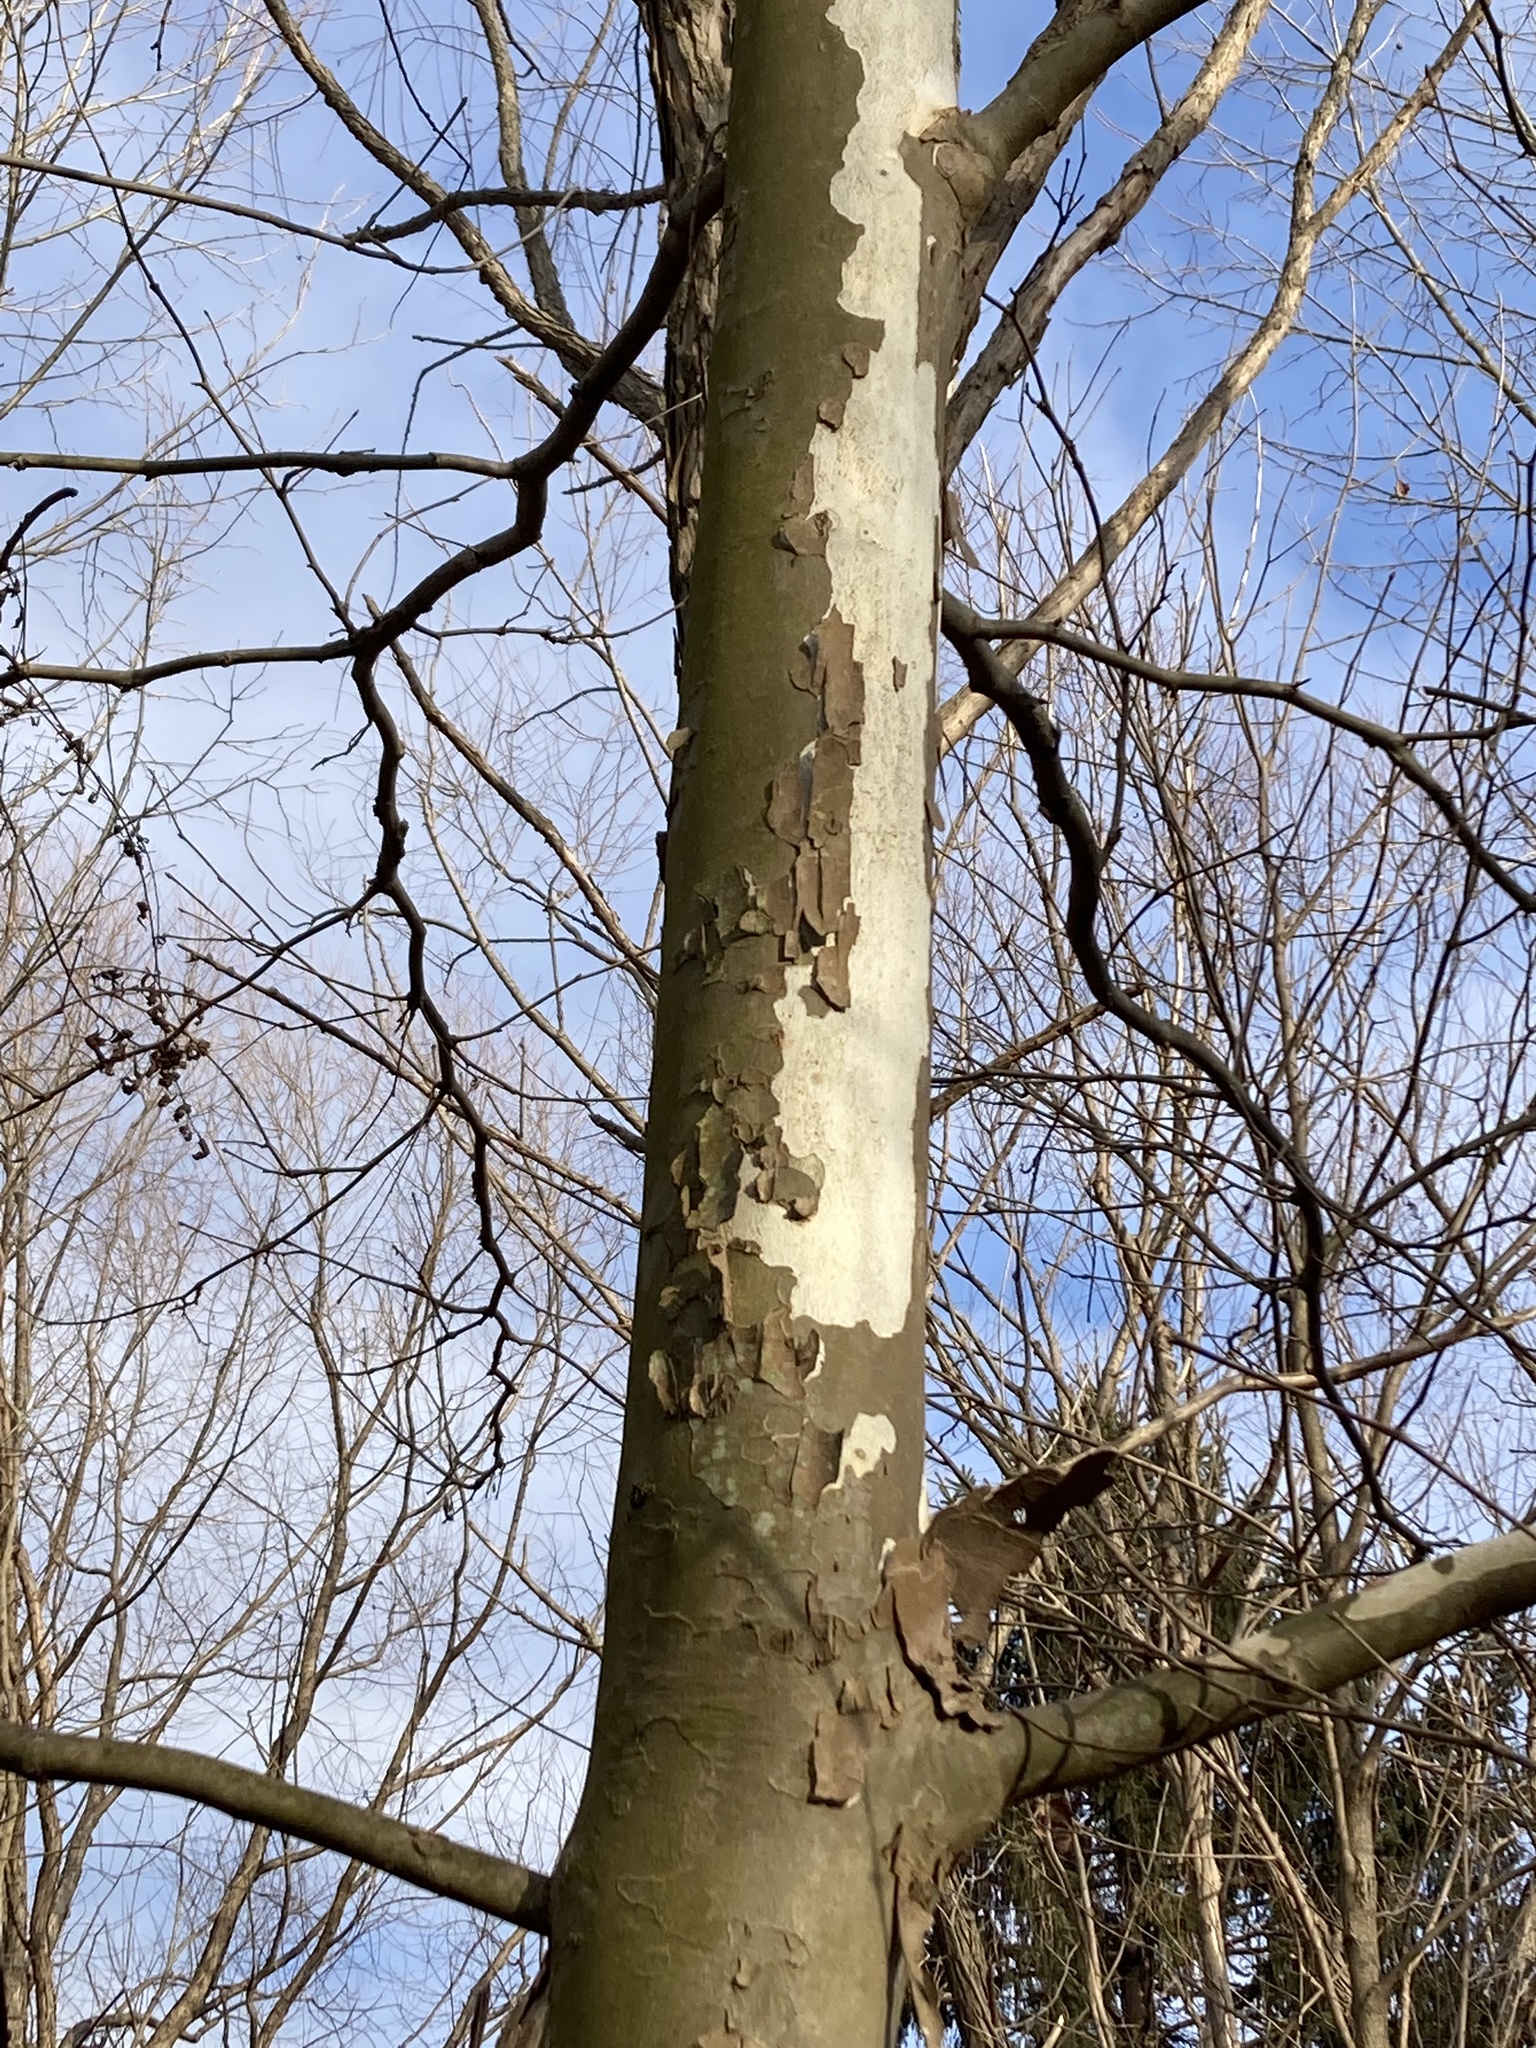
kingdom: Plantae
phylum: Tracheophyta
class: Magnoliopsida
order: Proteales
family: Platanaceae
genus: Platanus
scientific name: Platanus occidentalis
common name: American sycamore
